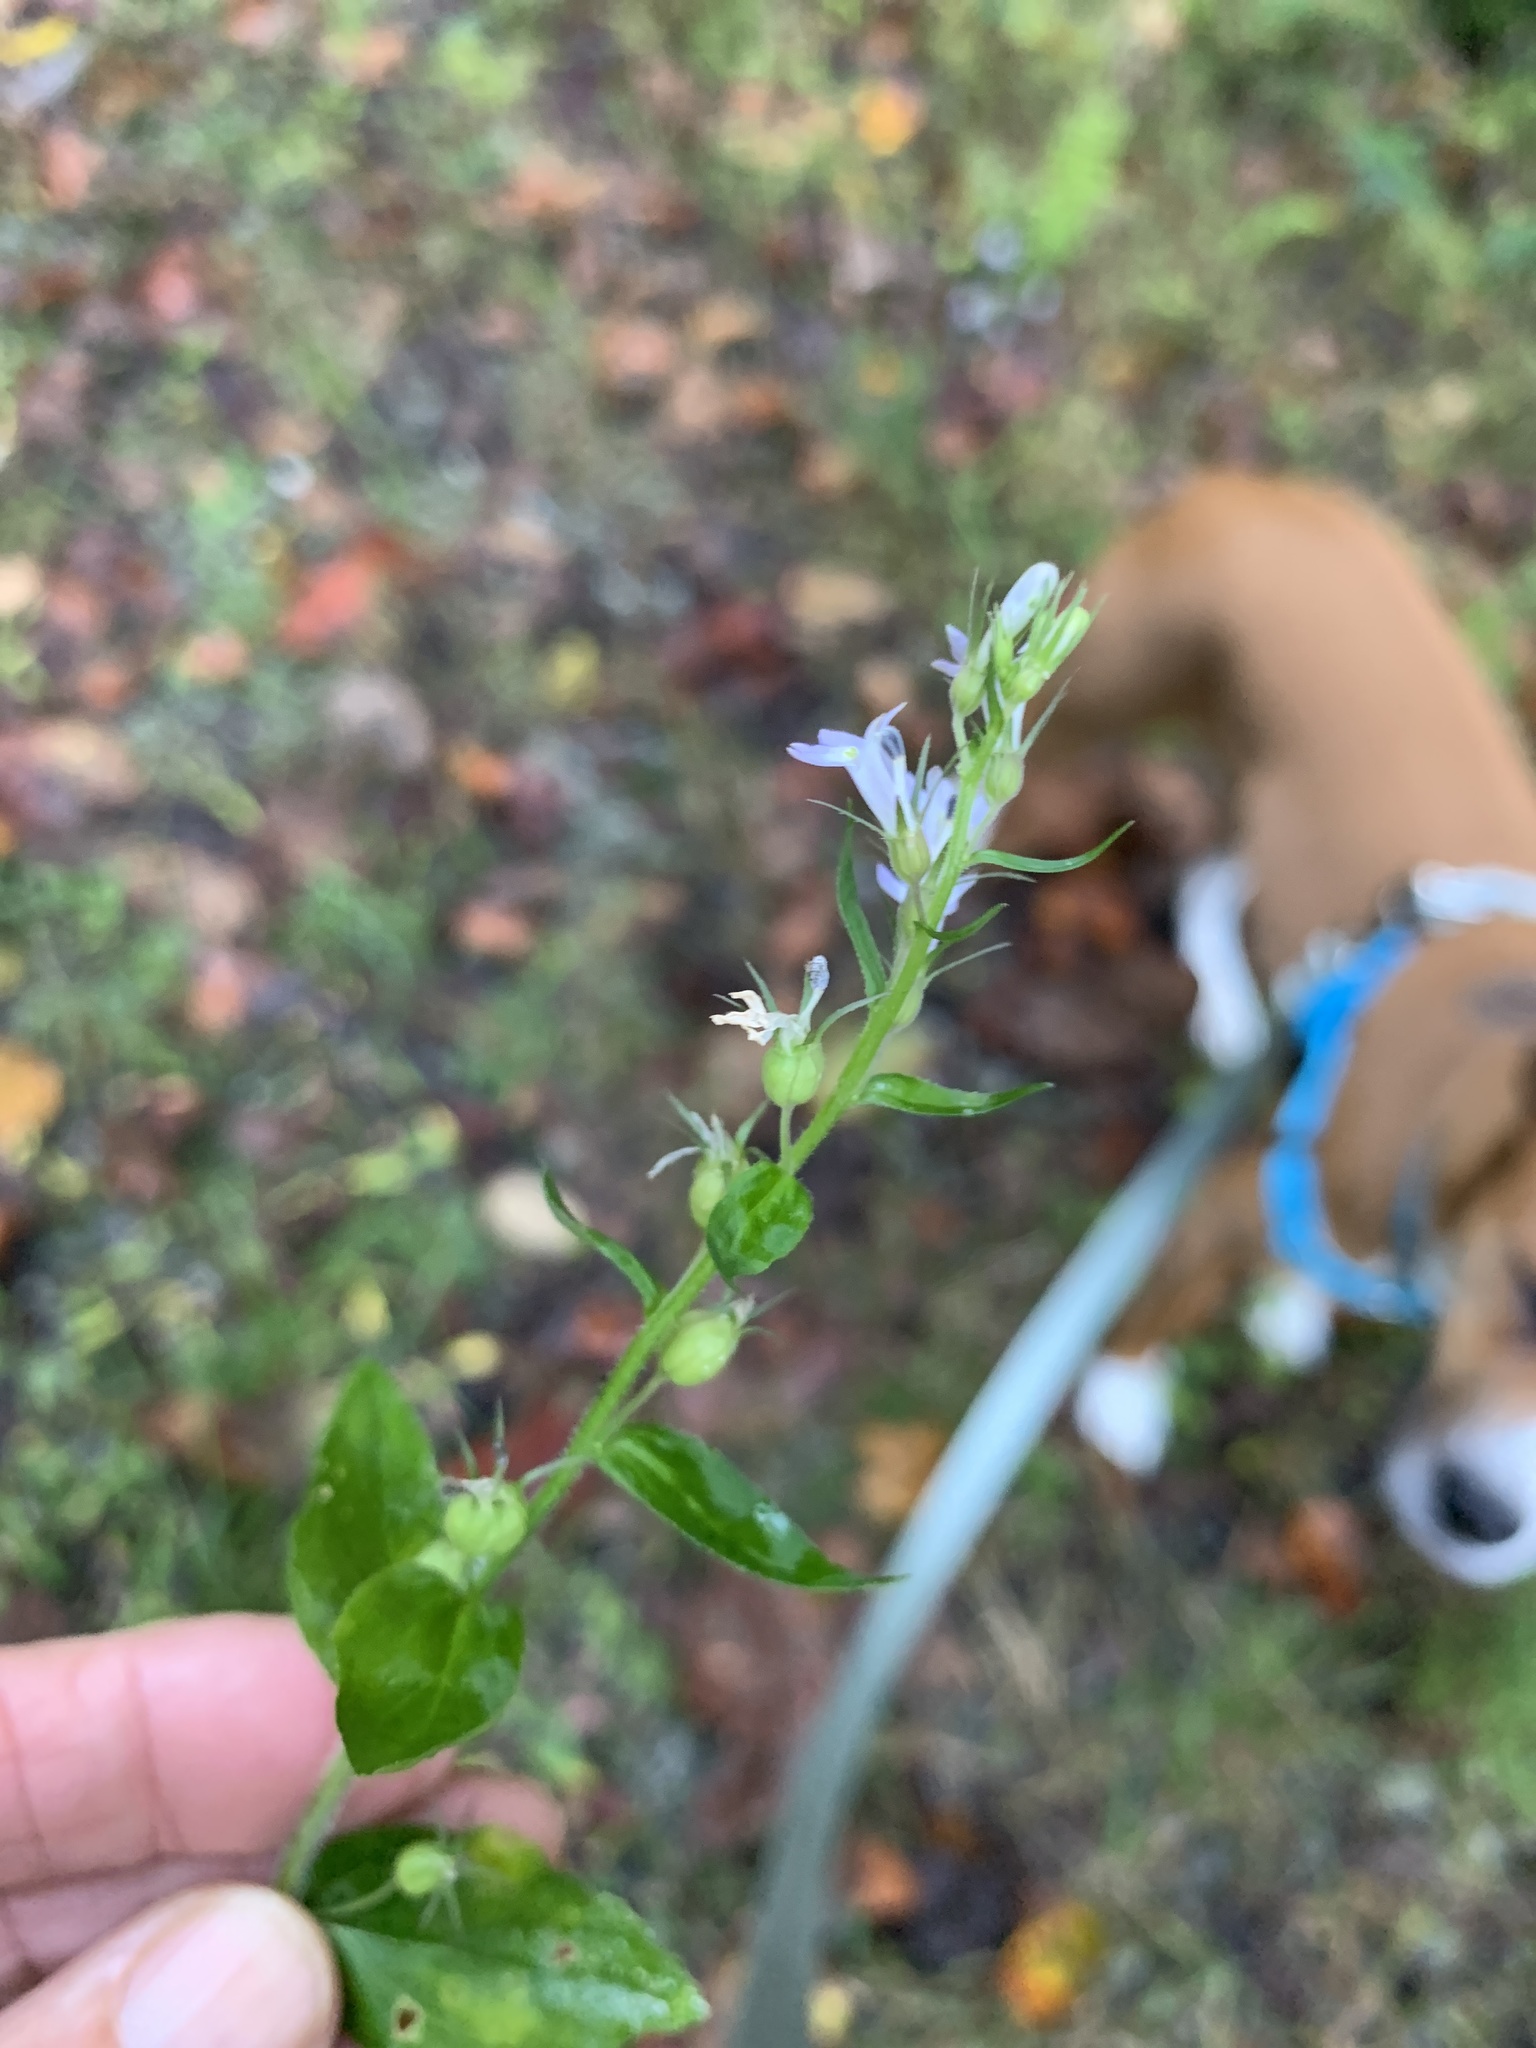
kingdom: Plantae
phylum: Tracheophyta
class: Magnoliopsida
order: Asterales
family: Campanulaceae
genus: Lobelia
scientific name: Lobelia inflata
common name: Indian tobacco
